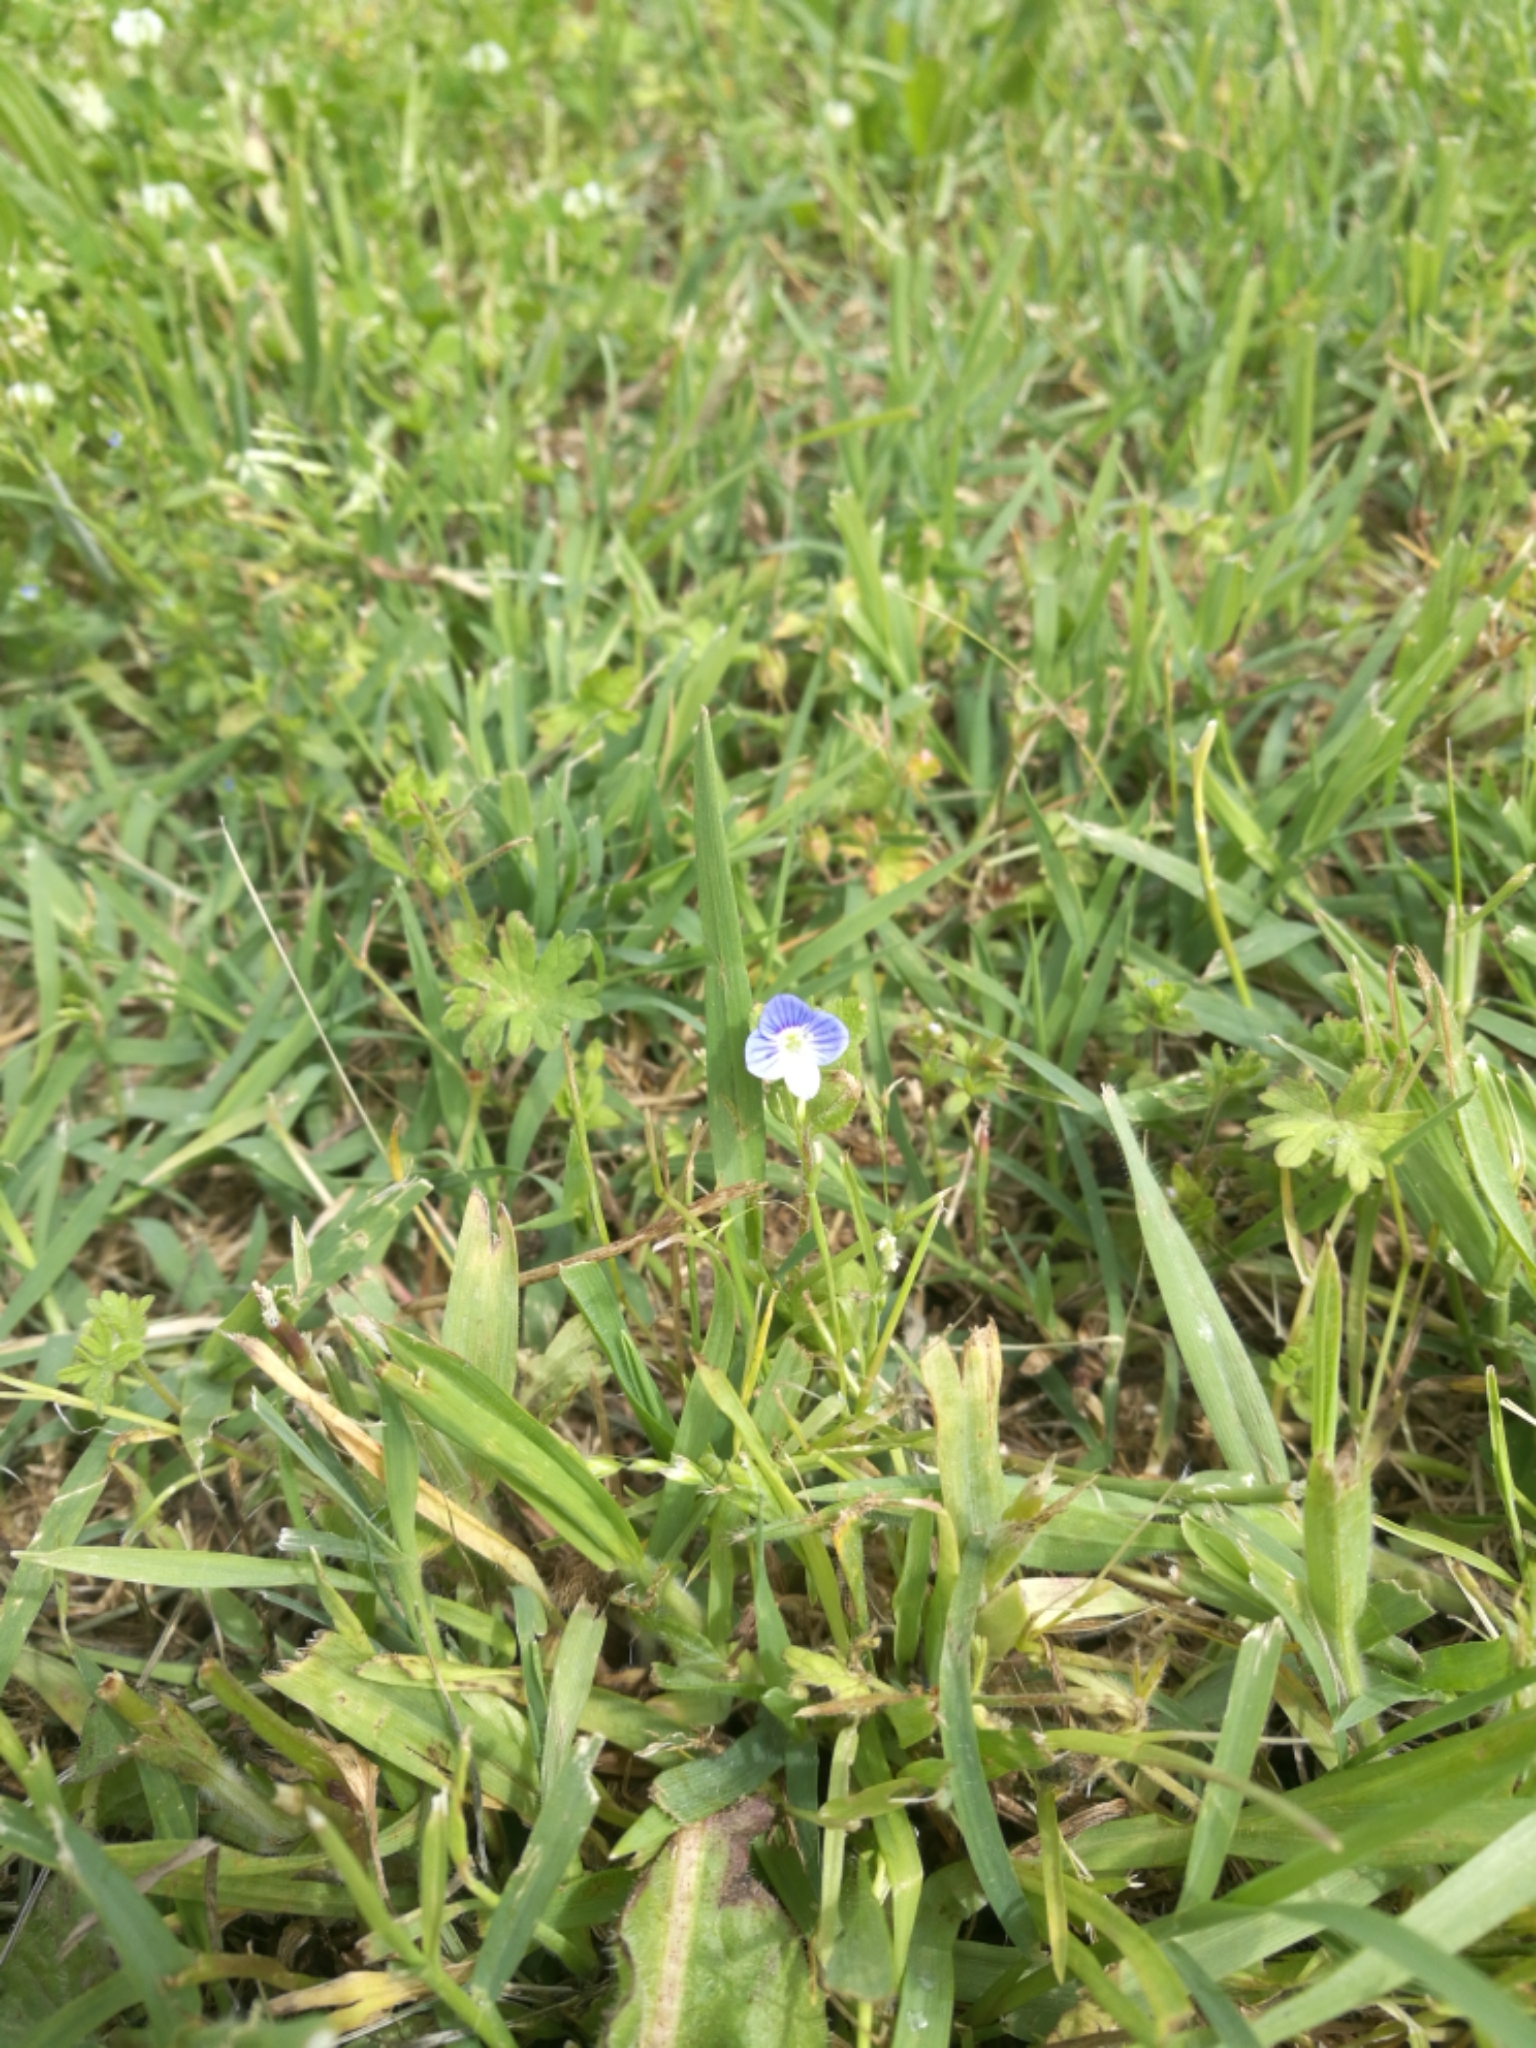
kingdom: Plantae
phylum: Tracheophyta
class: Magnoliopsida
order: Lamiales
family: Plantaginaceae
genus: Veronica
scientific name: Veronica persica
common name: Common field-speedwell
